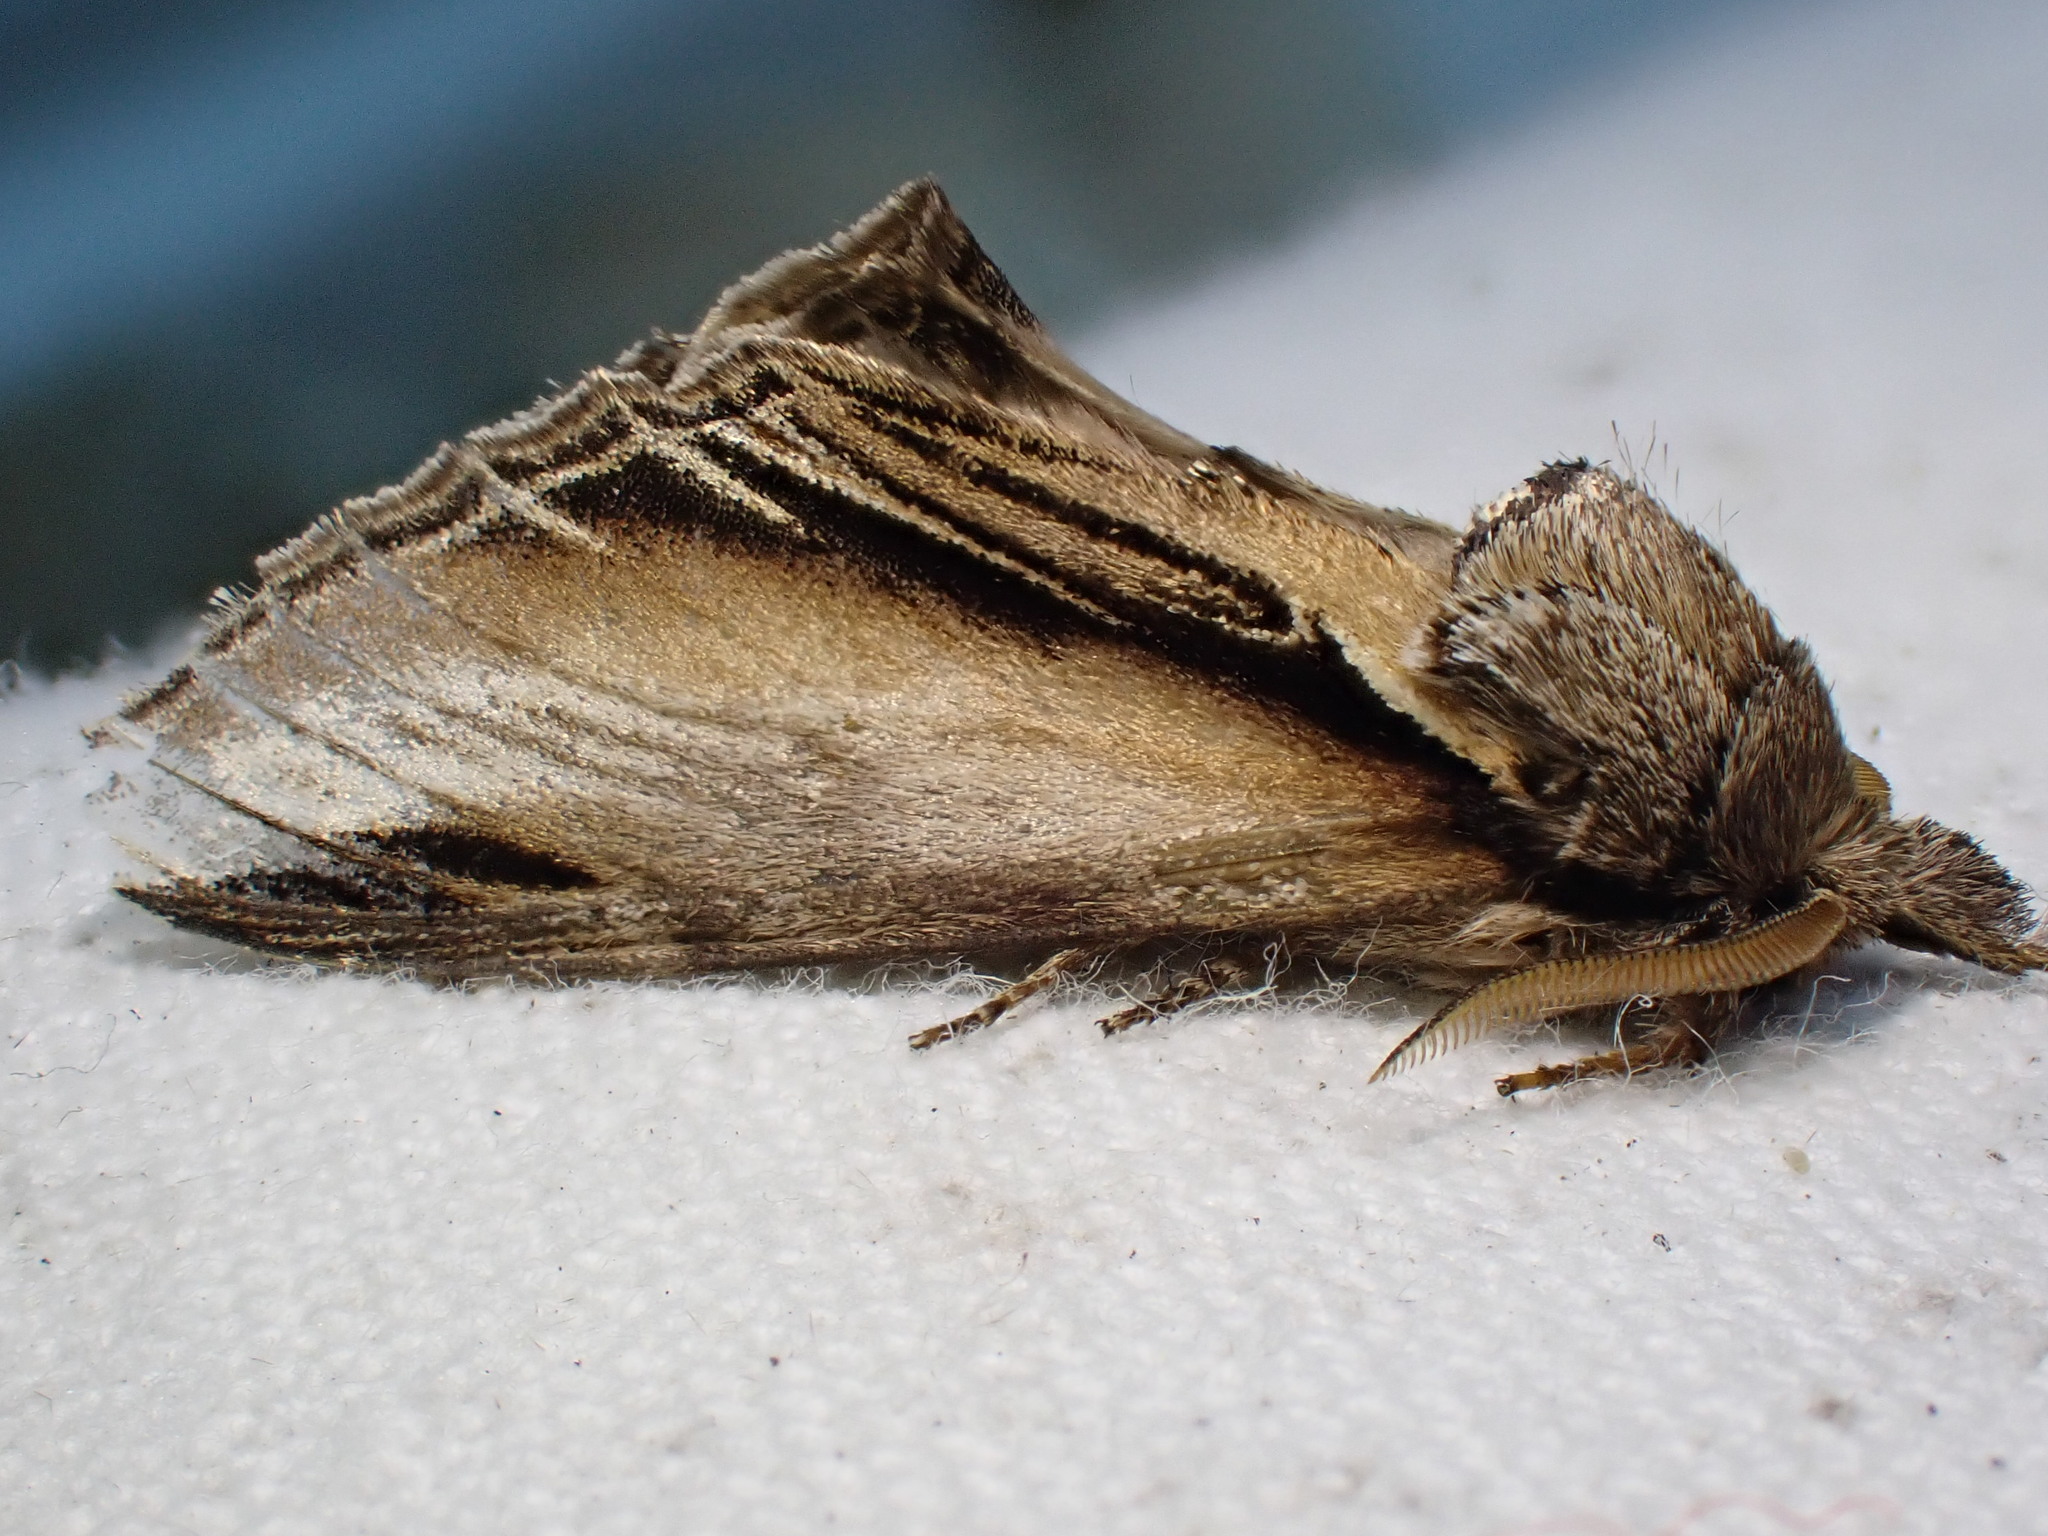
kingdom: Animalia
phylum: Arthropoda
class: Insecta
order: Lepidoptera
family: Notodontidae
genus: Pheosia
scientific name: Pheosia tremula
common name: Swallow prominent
